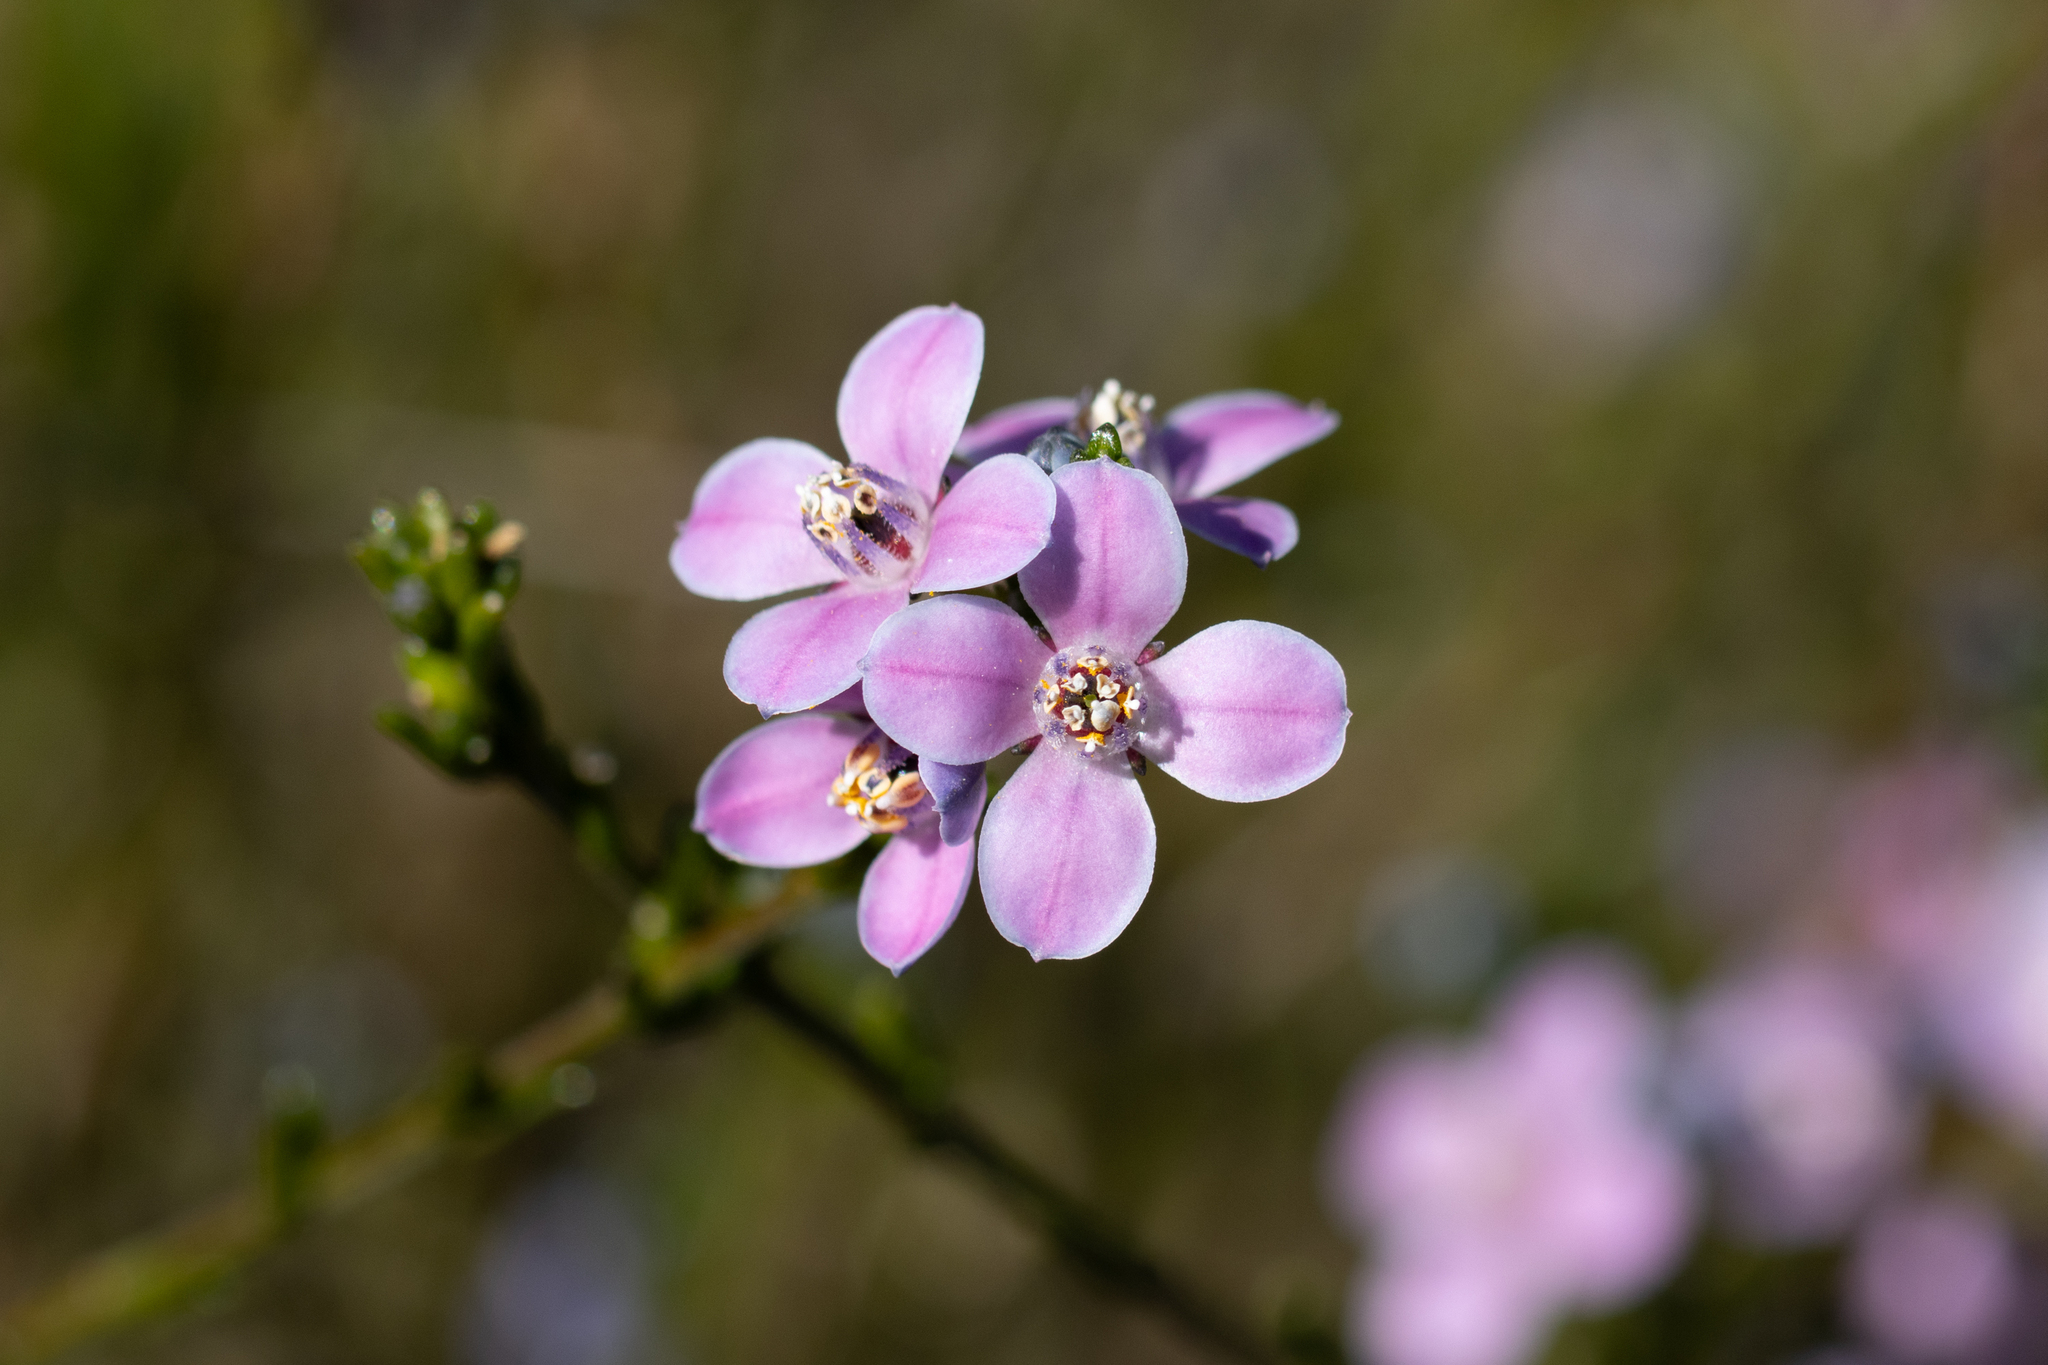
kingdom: Plantae
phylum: Tracheophyta
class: Magnoliopsida
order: Sapindales
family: Rutaceae
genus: Cyanothamnus
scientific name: Cyanothamnus coerulescens
